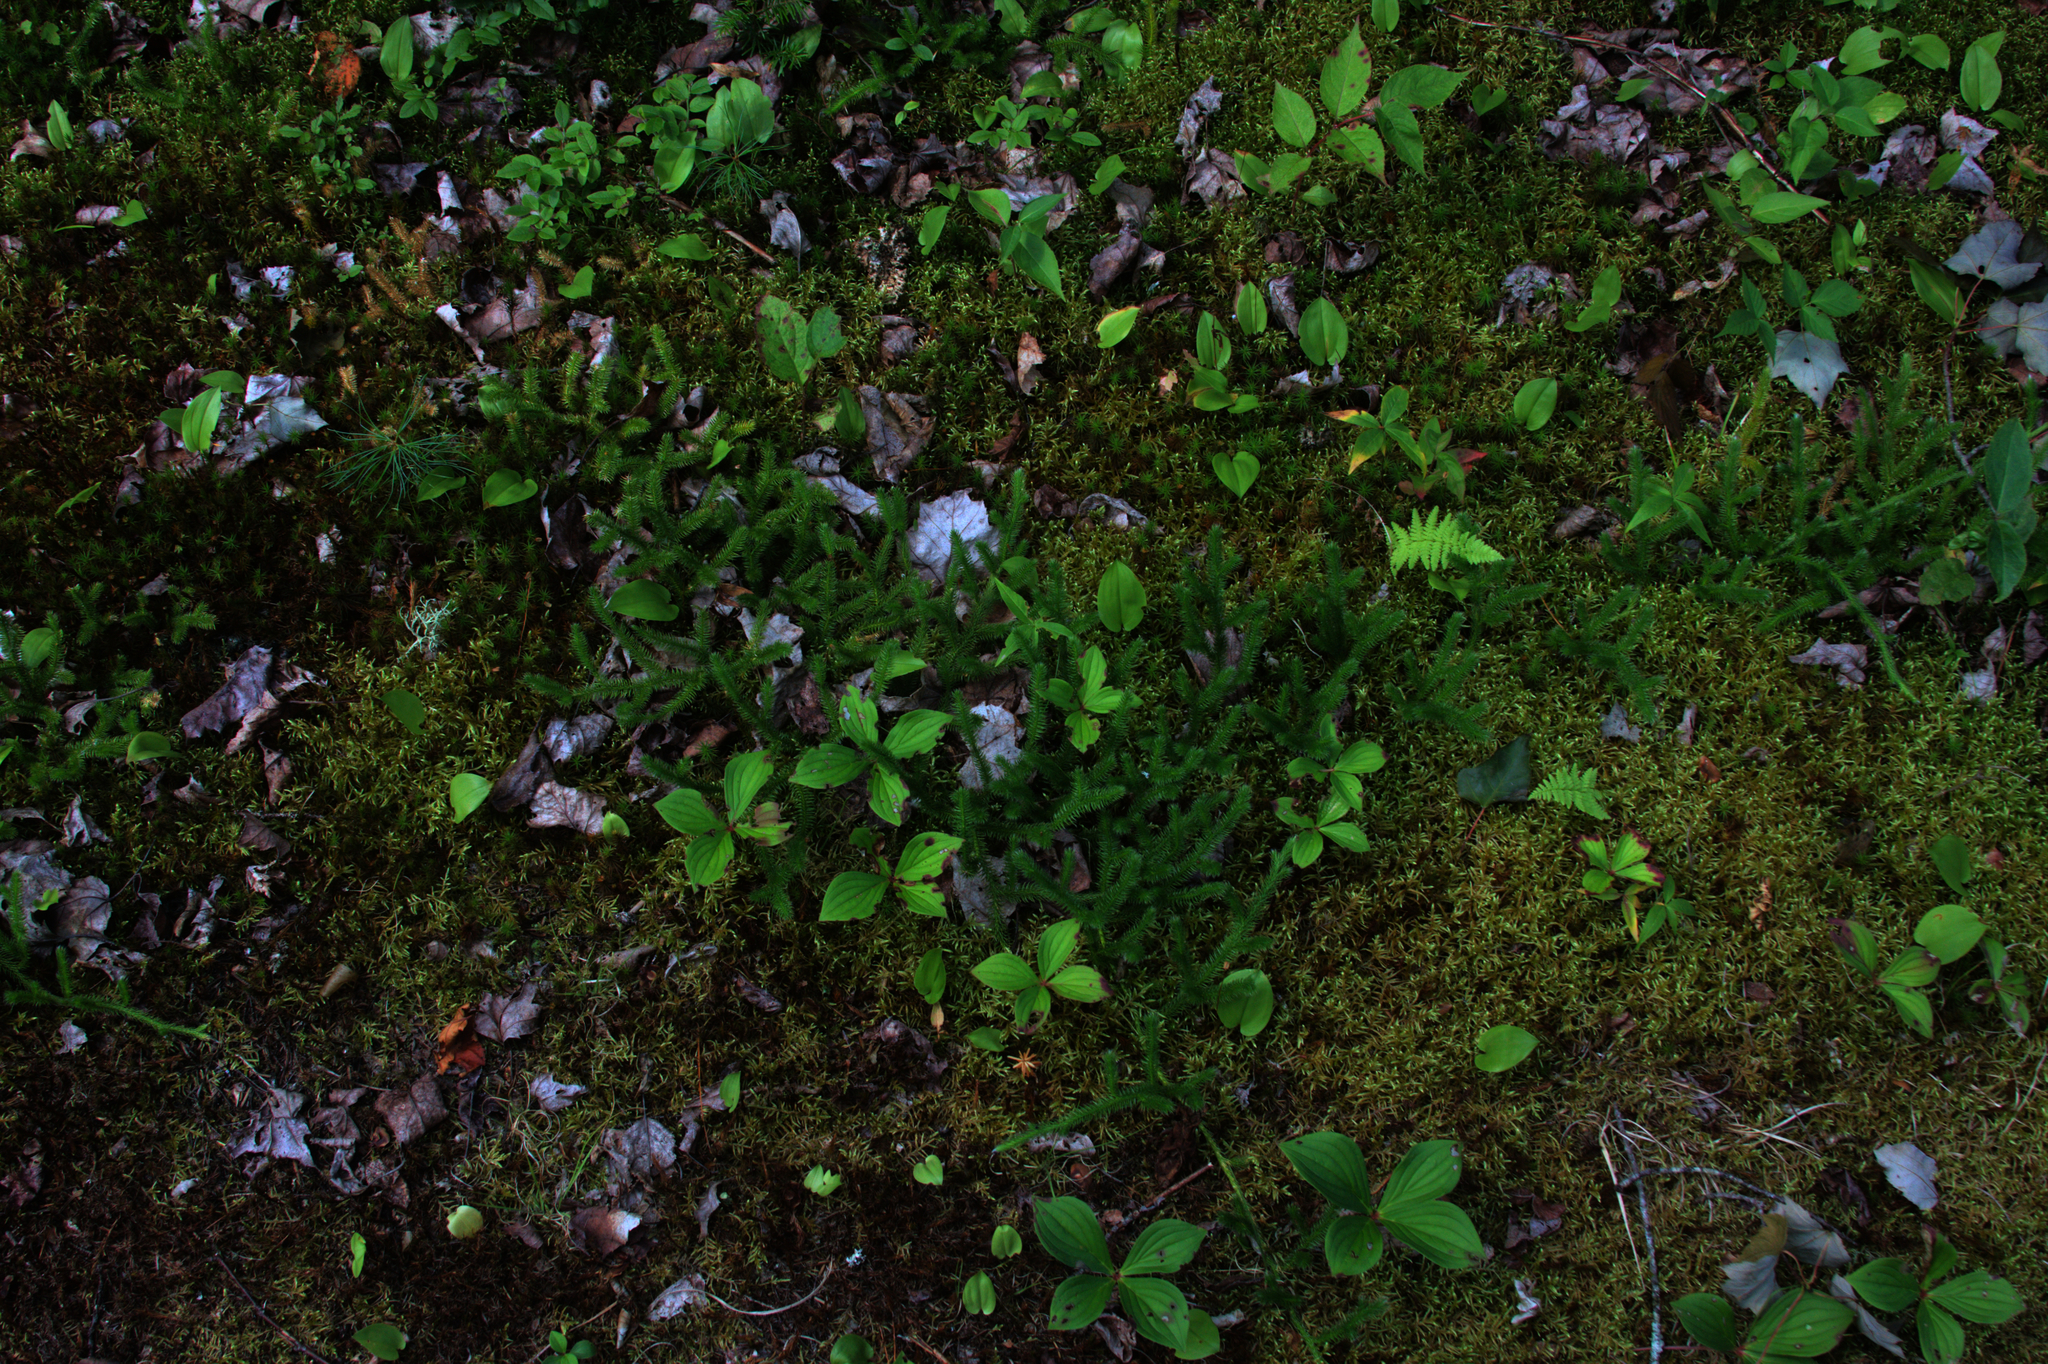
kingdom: Plantae
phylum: Tracheophyta
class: Lycopodiopsida
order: Lycopodiales
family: Lycopodiaceae
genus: Lycopodium
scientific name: Lycopodium clavatum
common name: Stag's-horn clubmoss
